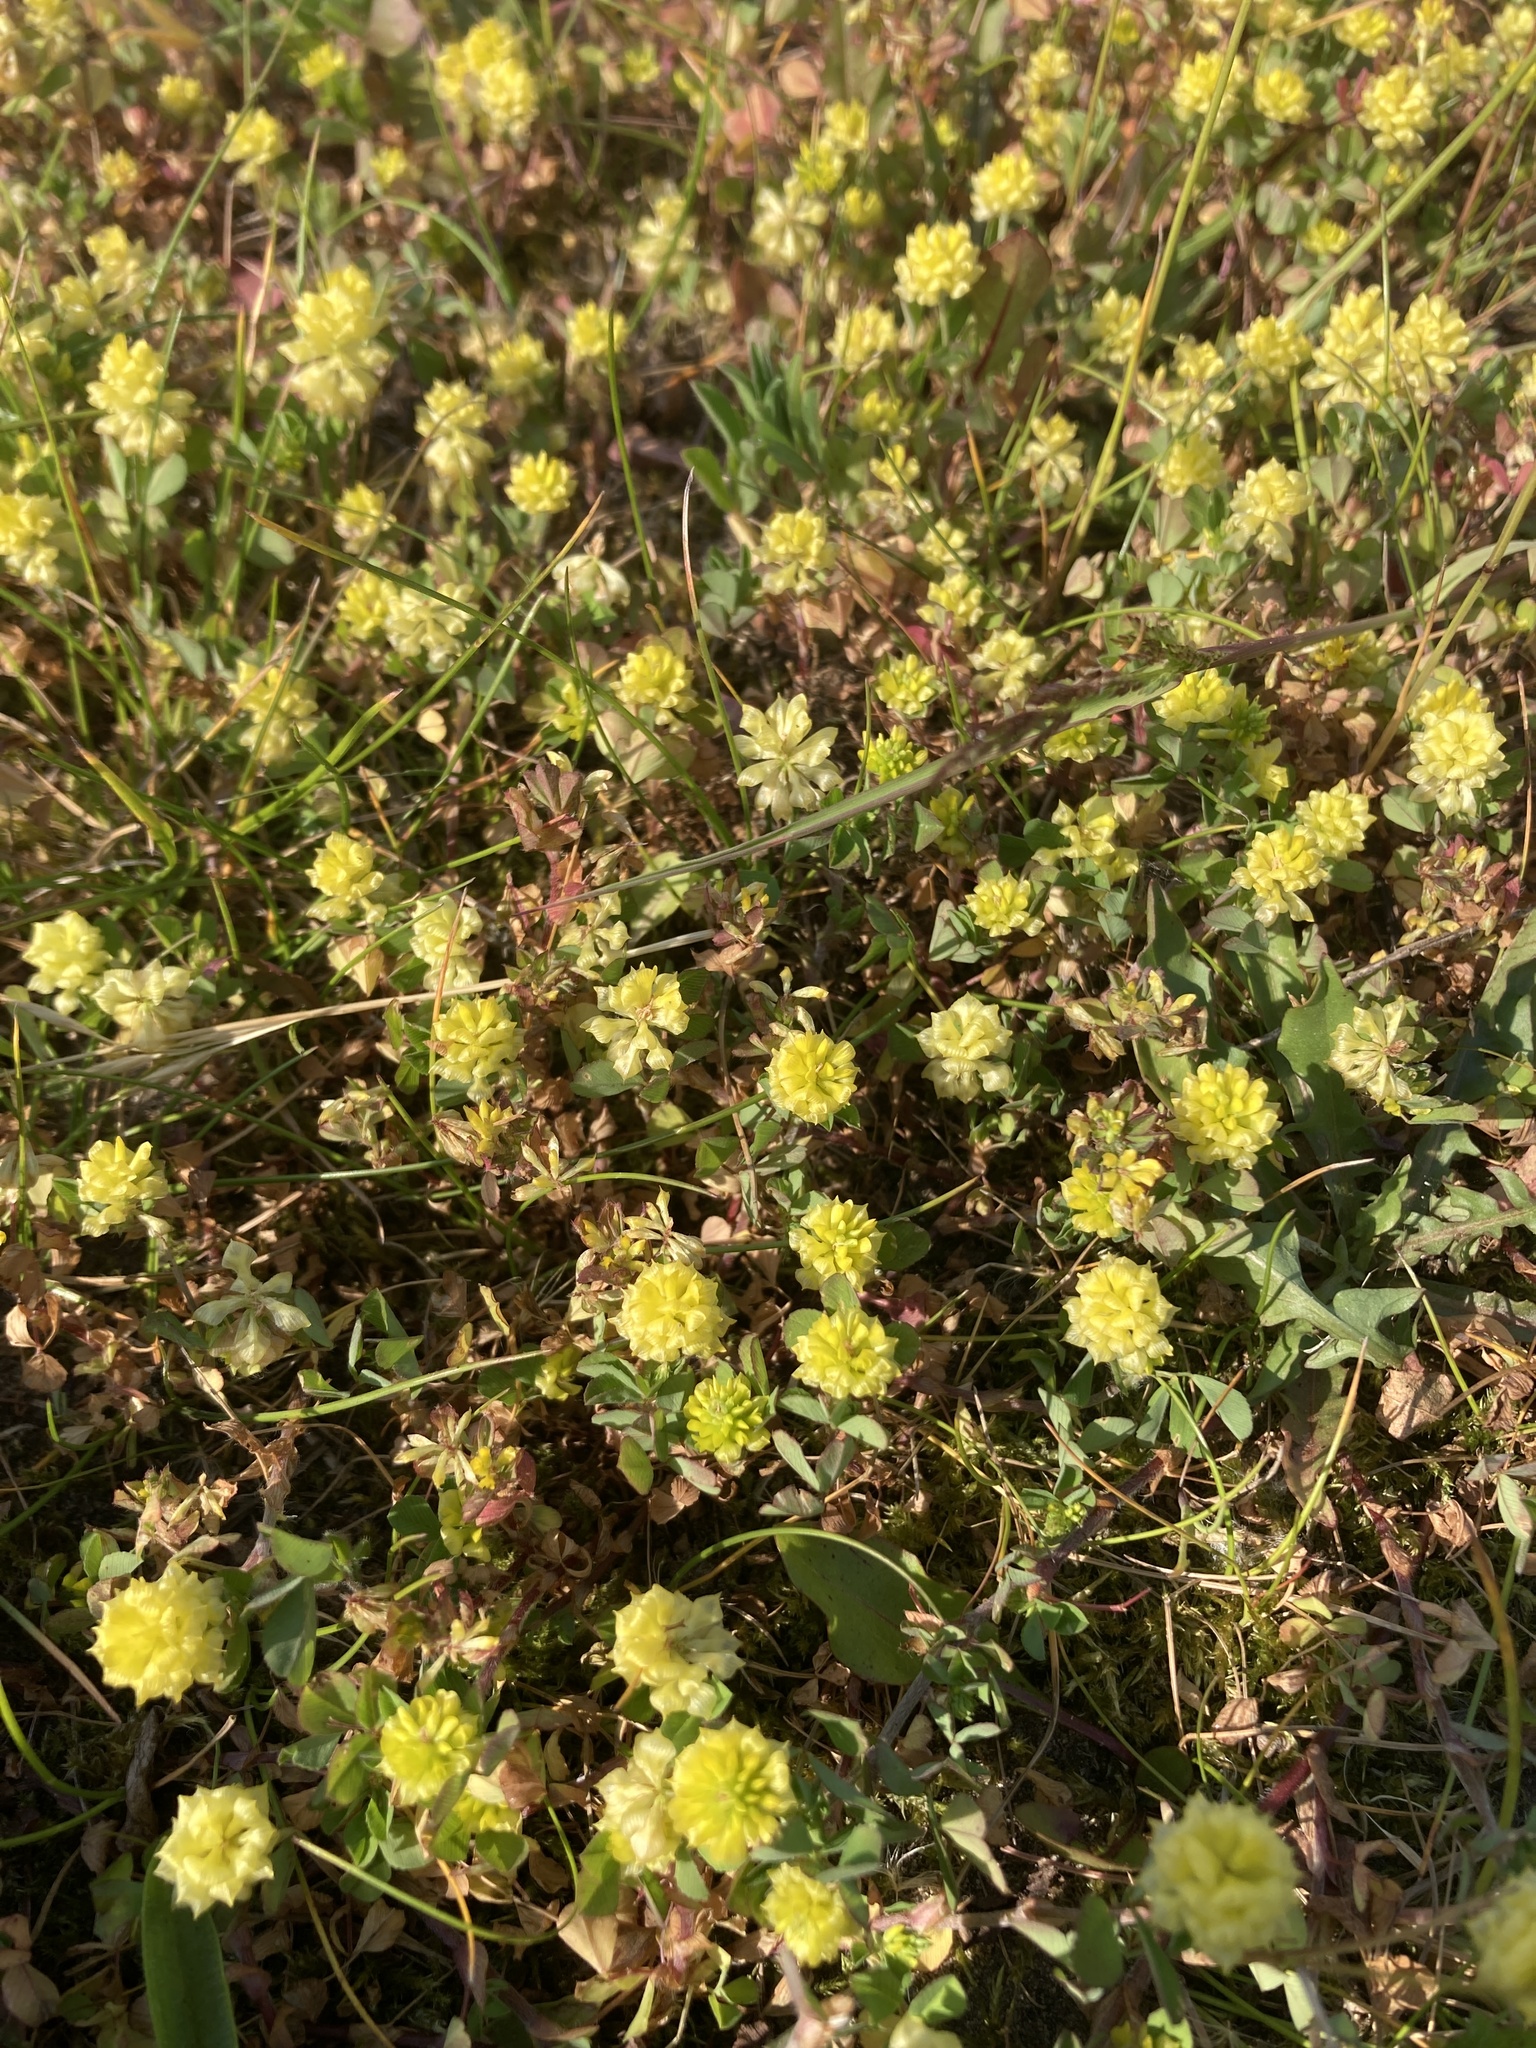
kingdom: Plantae
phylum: Tracheophyta
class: Magnoliopsida
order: Fabales
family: Fabaceae
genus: Trifolium
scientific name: Trifolium campestre
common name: Field clover
